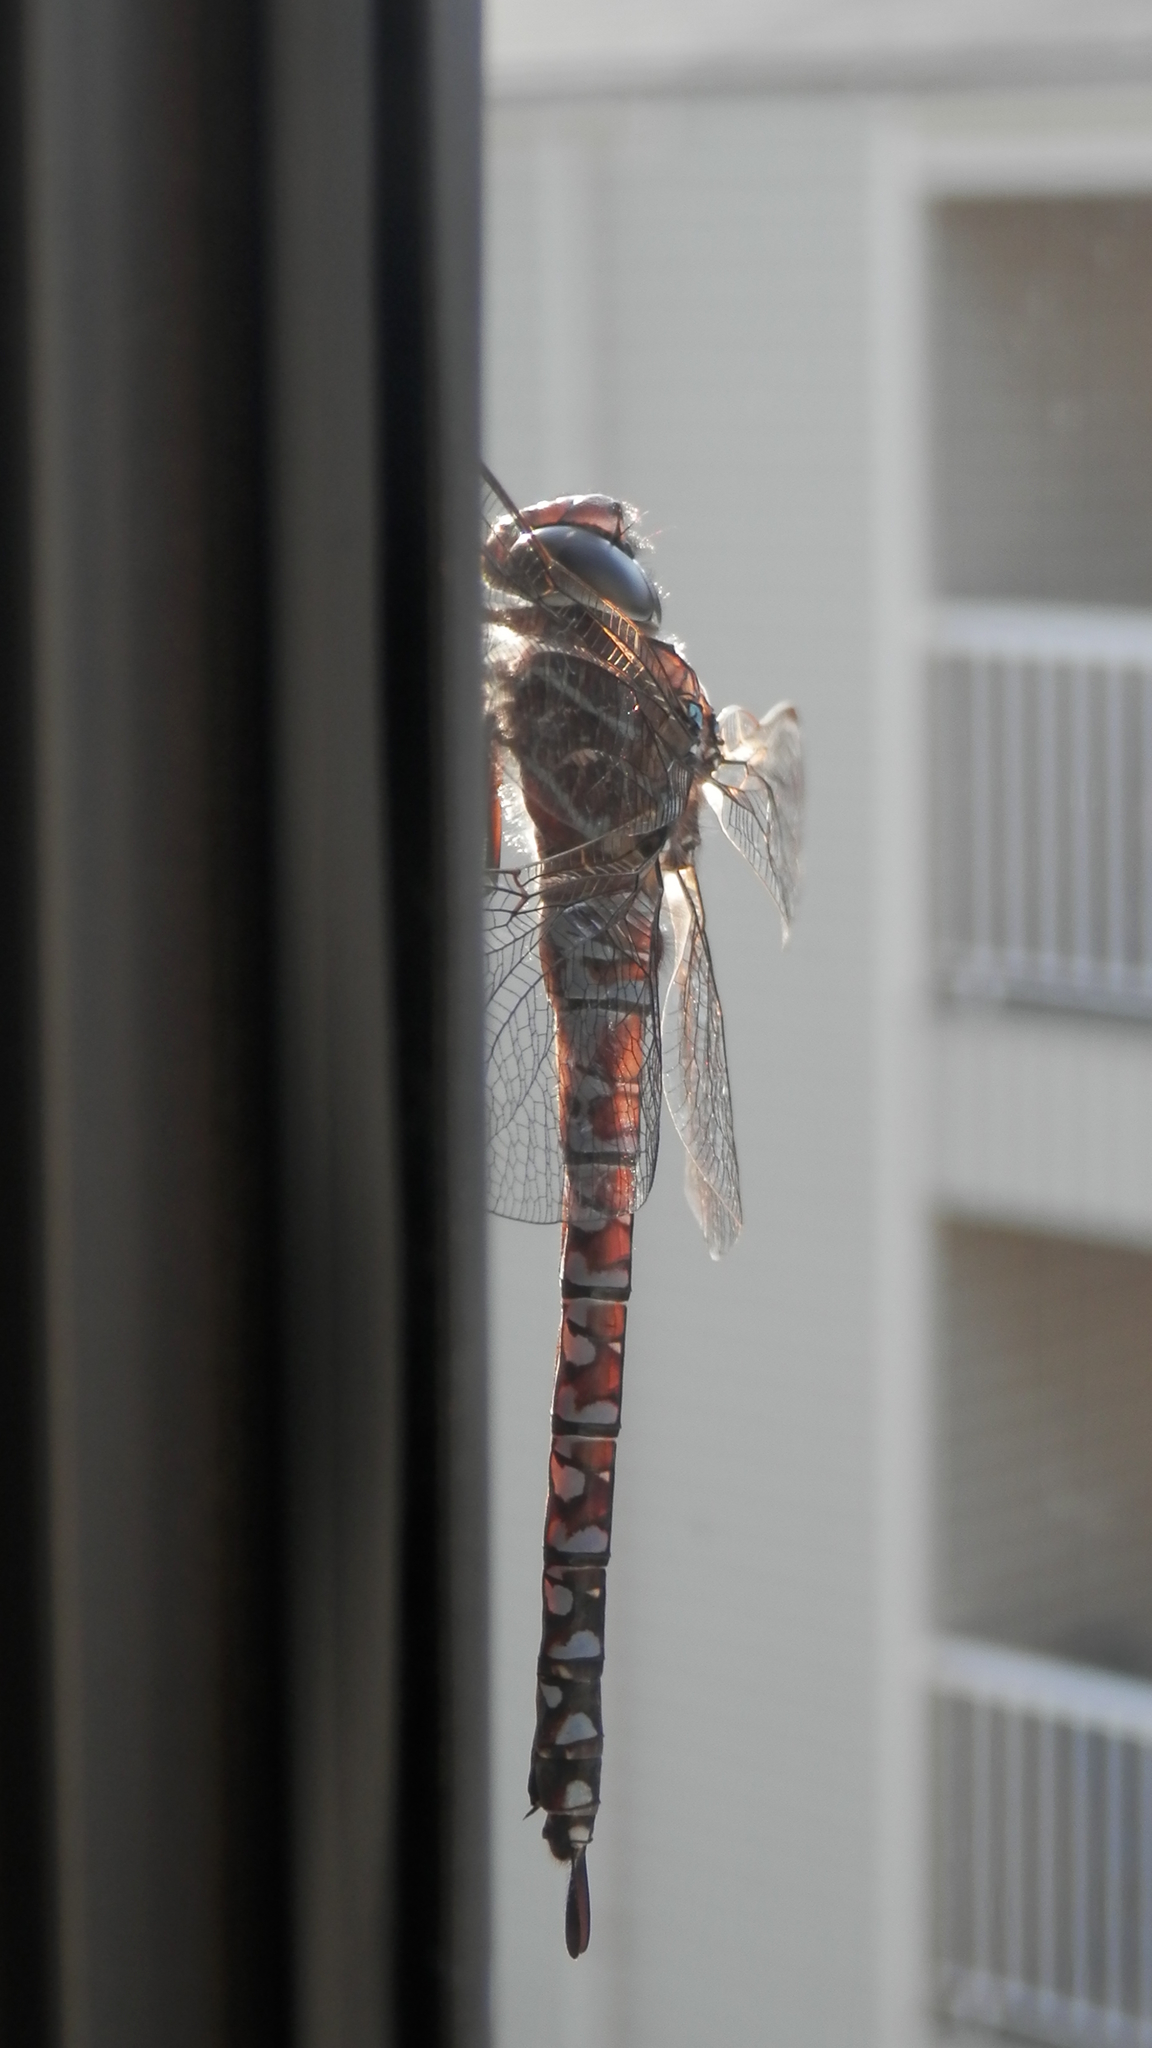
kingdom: Animalia
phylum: Arthropoda
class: Insecta
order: Odonata
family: Aeshnidae
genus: Aeshna
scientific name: Aeshna interrupta
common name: Variable darner
